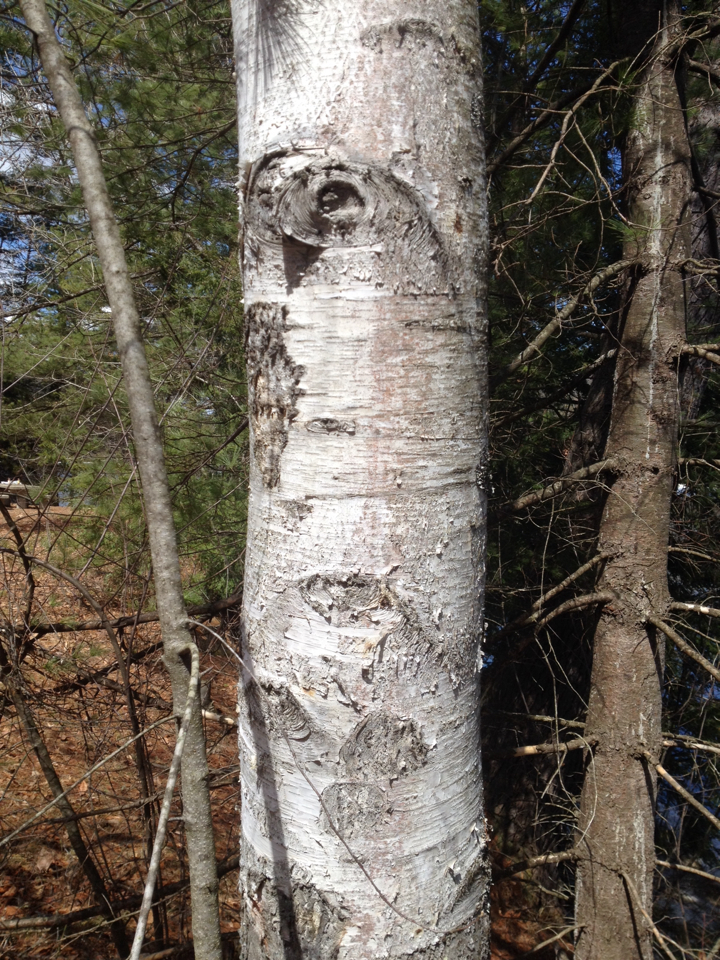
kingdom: Plantae
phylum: Tracheophyta
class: Magnoliopsida
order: Fagales
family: Betulaceae
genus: Betula
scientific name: Betula papyrifera
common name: Paper birch
